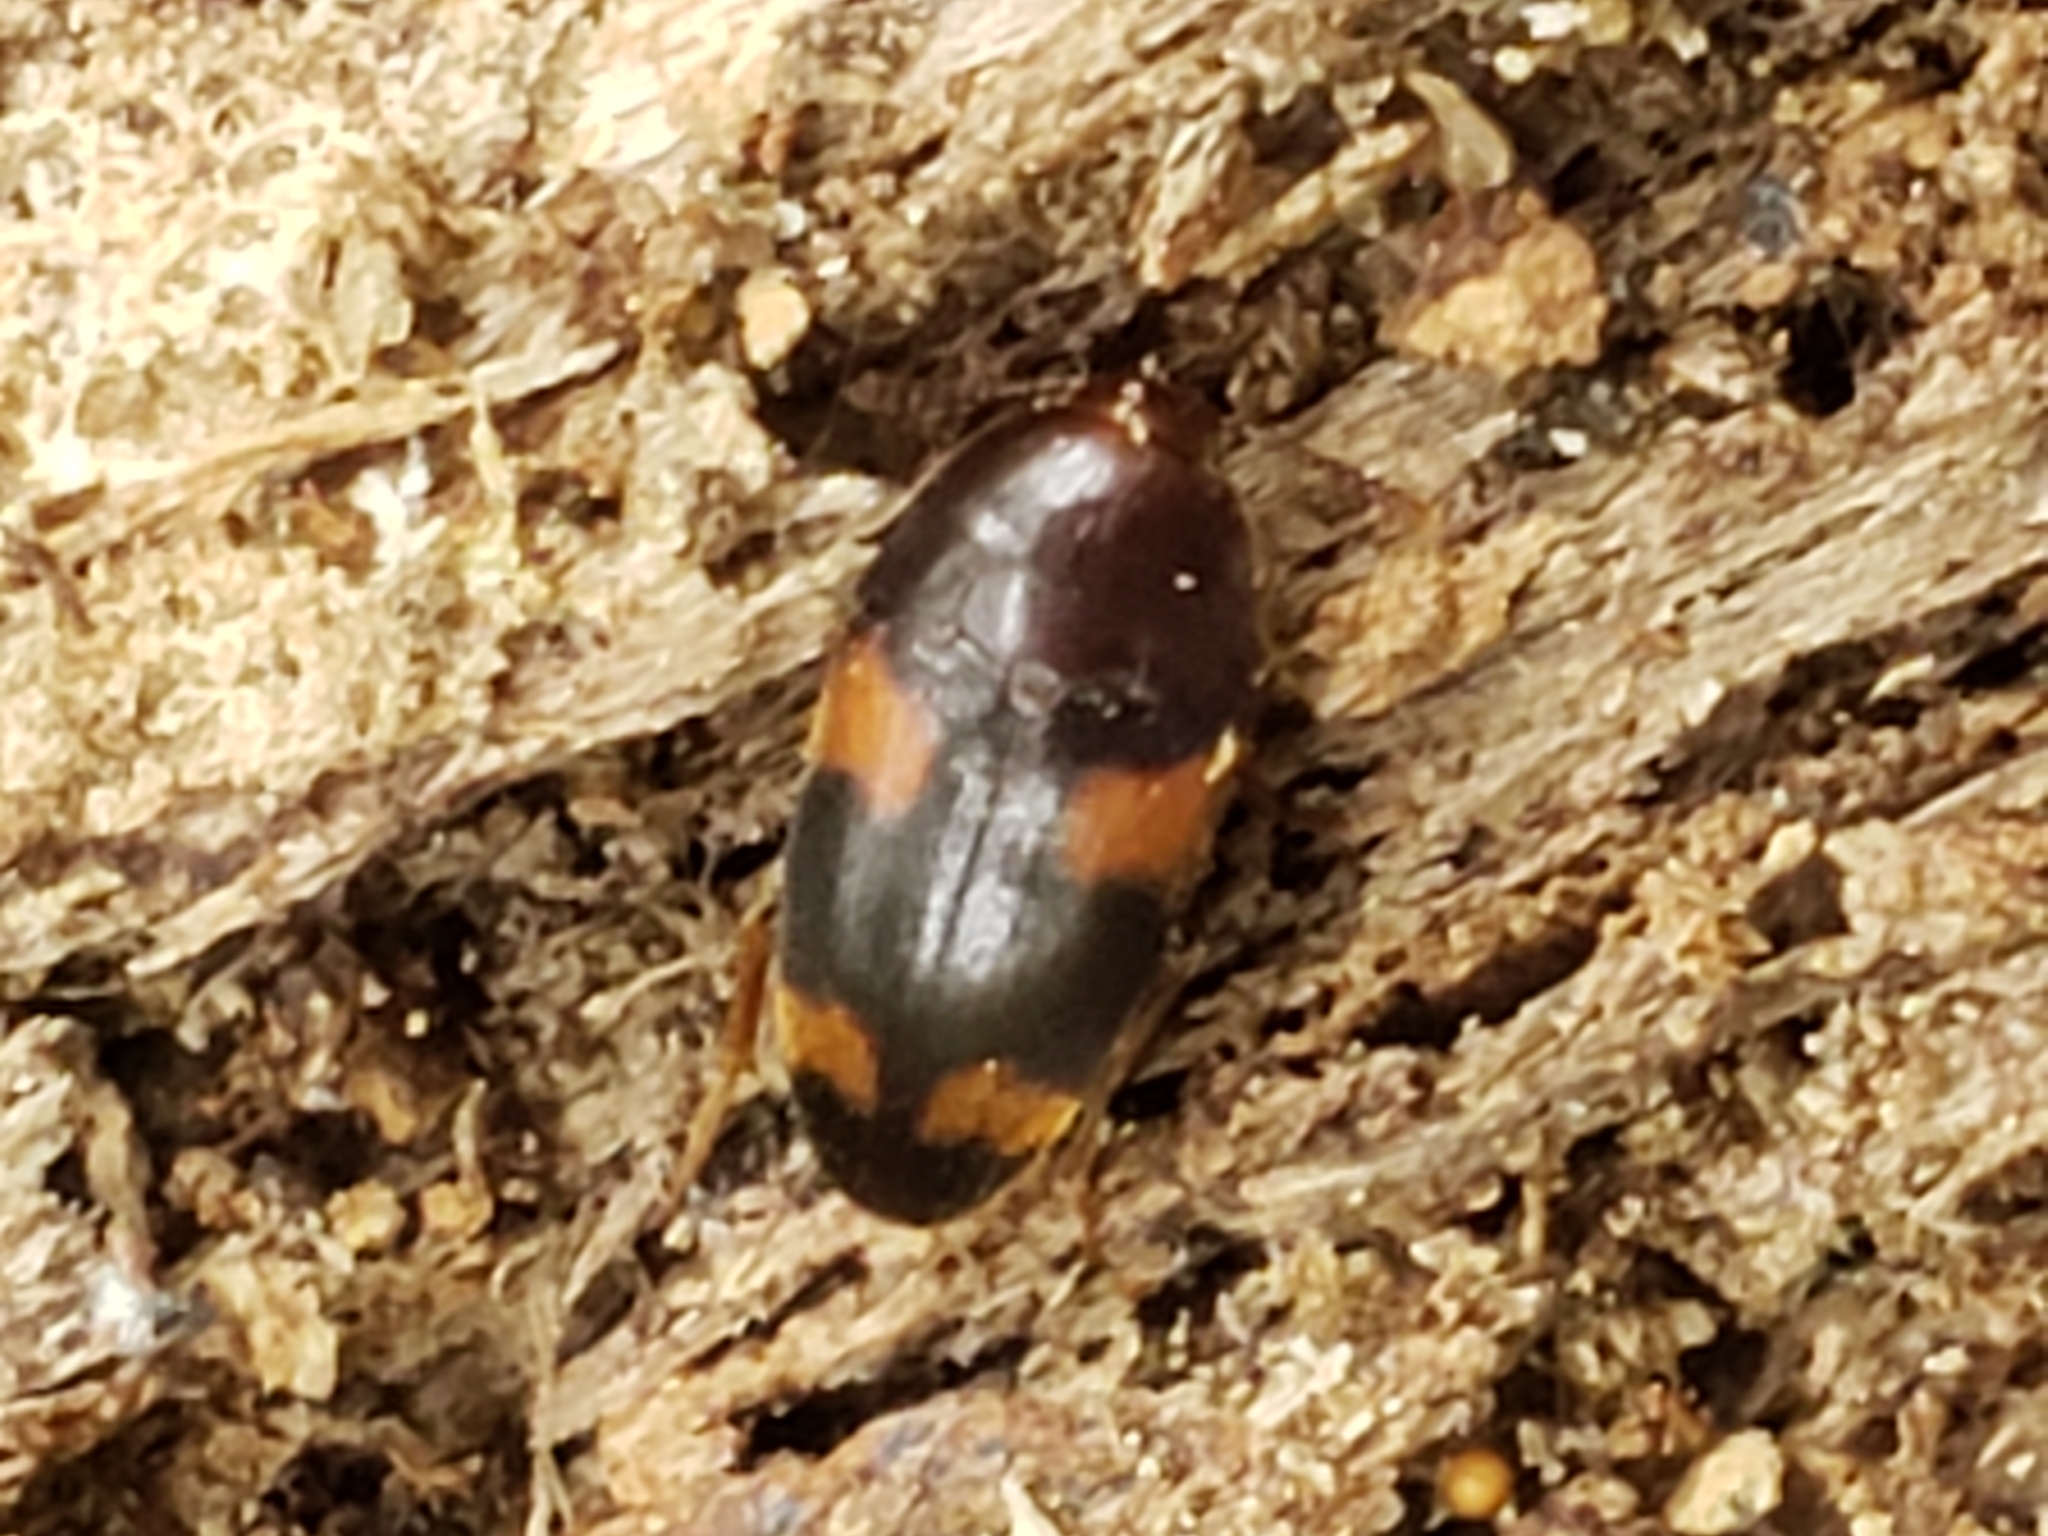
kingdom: Animalia
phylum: Arthropoda
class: Insecta
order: Coleoptera
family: Tetratomidae
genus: Holostrophus
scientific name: Holostrophus bifasciatus
